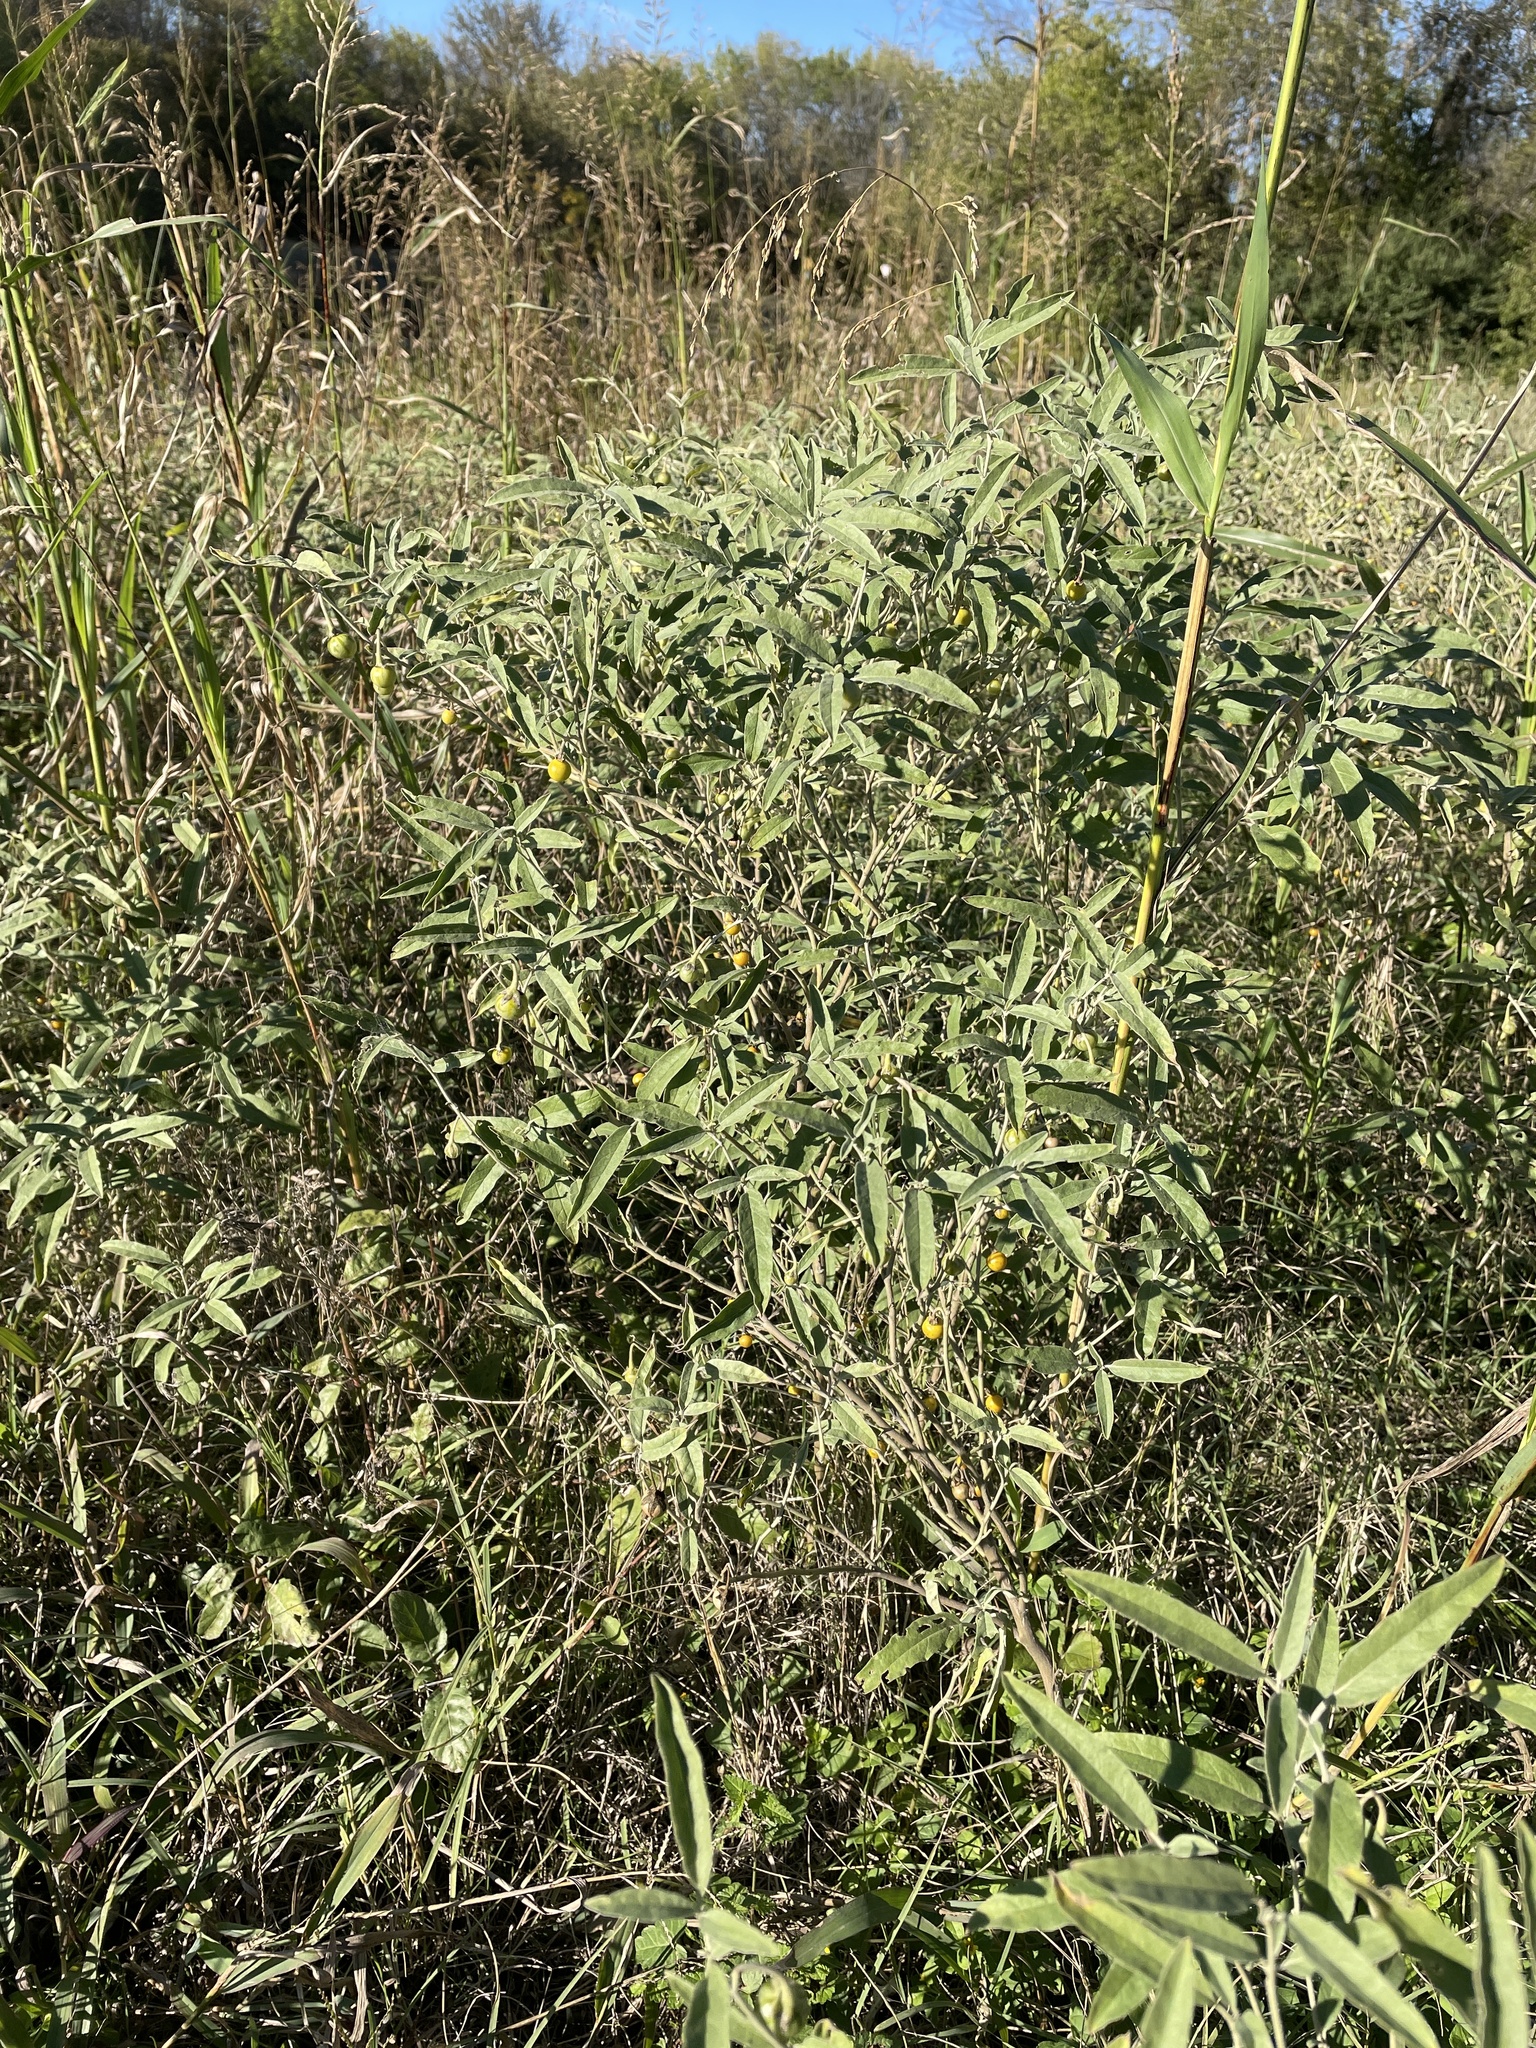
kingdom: Plantae
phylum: Tracheophyta
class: Magnoliopsida
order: Solanales
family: Solanaceae
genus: Solanum
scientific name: Solanum elaeagnifolium
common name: Silverleaf nightshade
